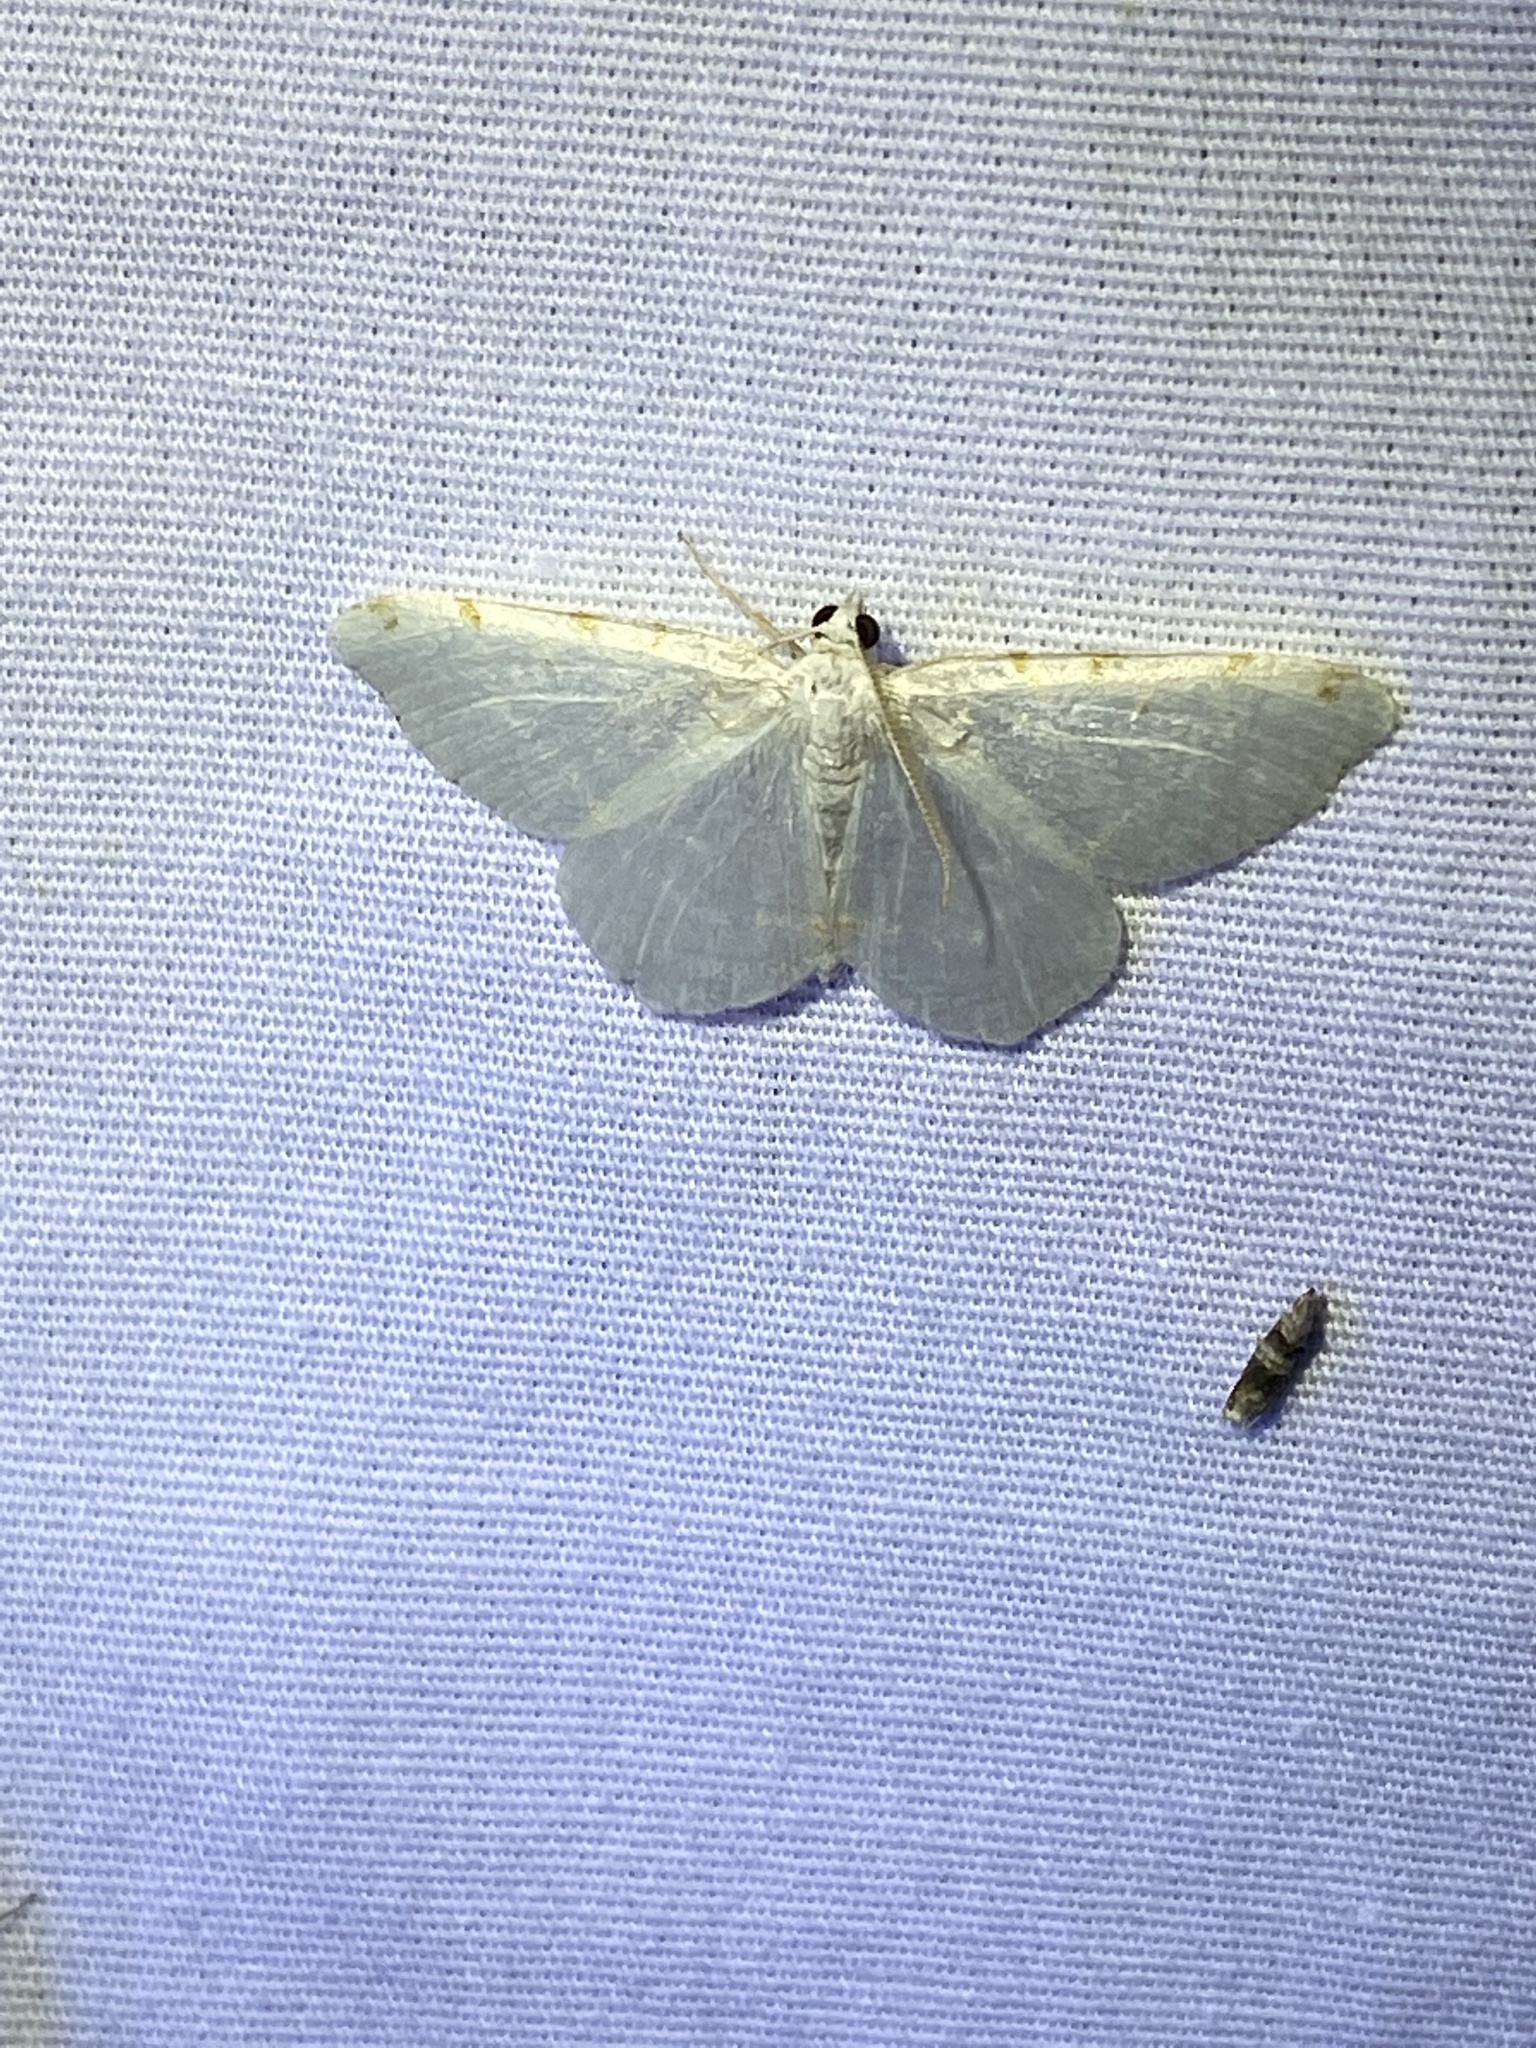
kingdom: Animalia
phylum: Arthropoda
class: Insecta
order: Lepidoptera
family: Geometridae
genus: Macaria
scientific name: Macaria pustularia
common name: Lesser maple spanworm moth
